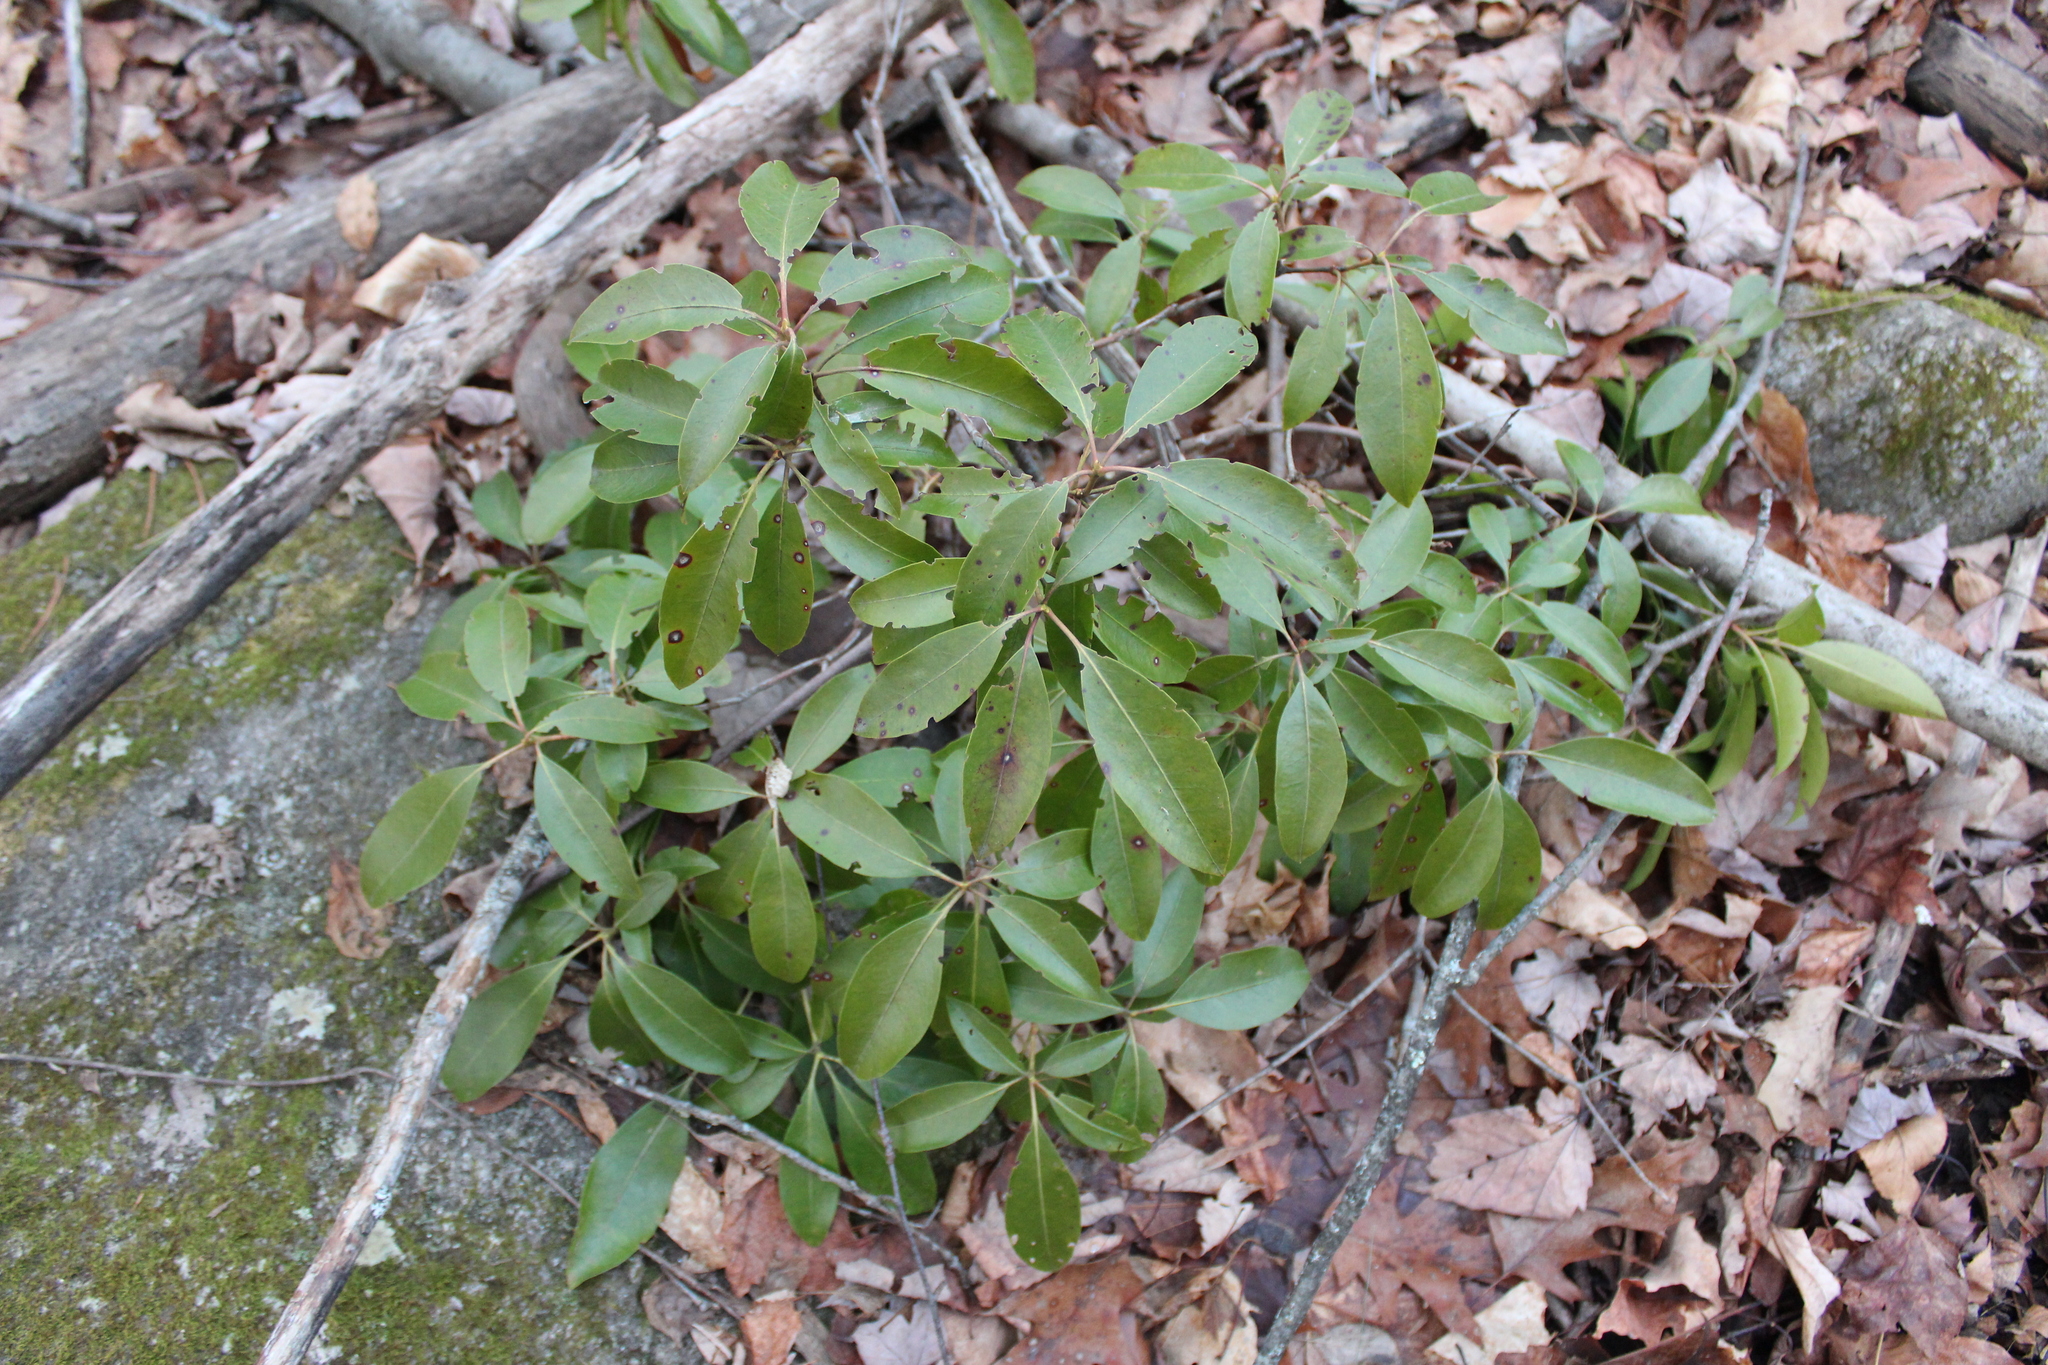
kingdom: Plantae
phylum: Tracheophyta
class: Magnoliopsida
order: Ericales
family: Ericaceae
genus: Kalmia
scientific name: Kalmia latifolia
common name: Mountain-laurel
